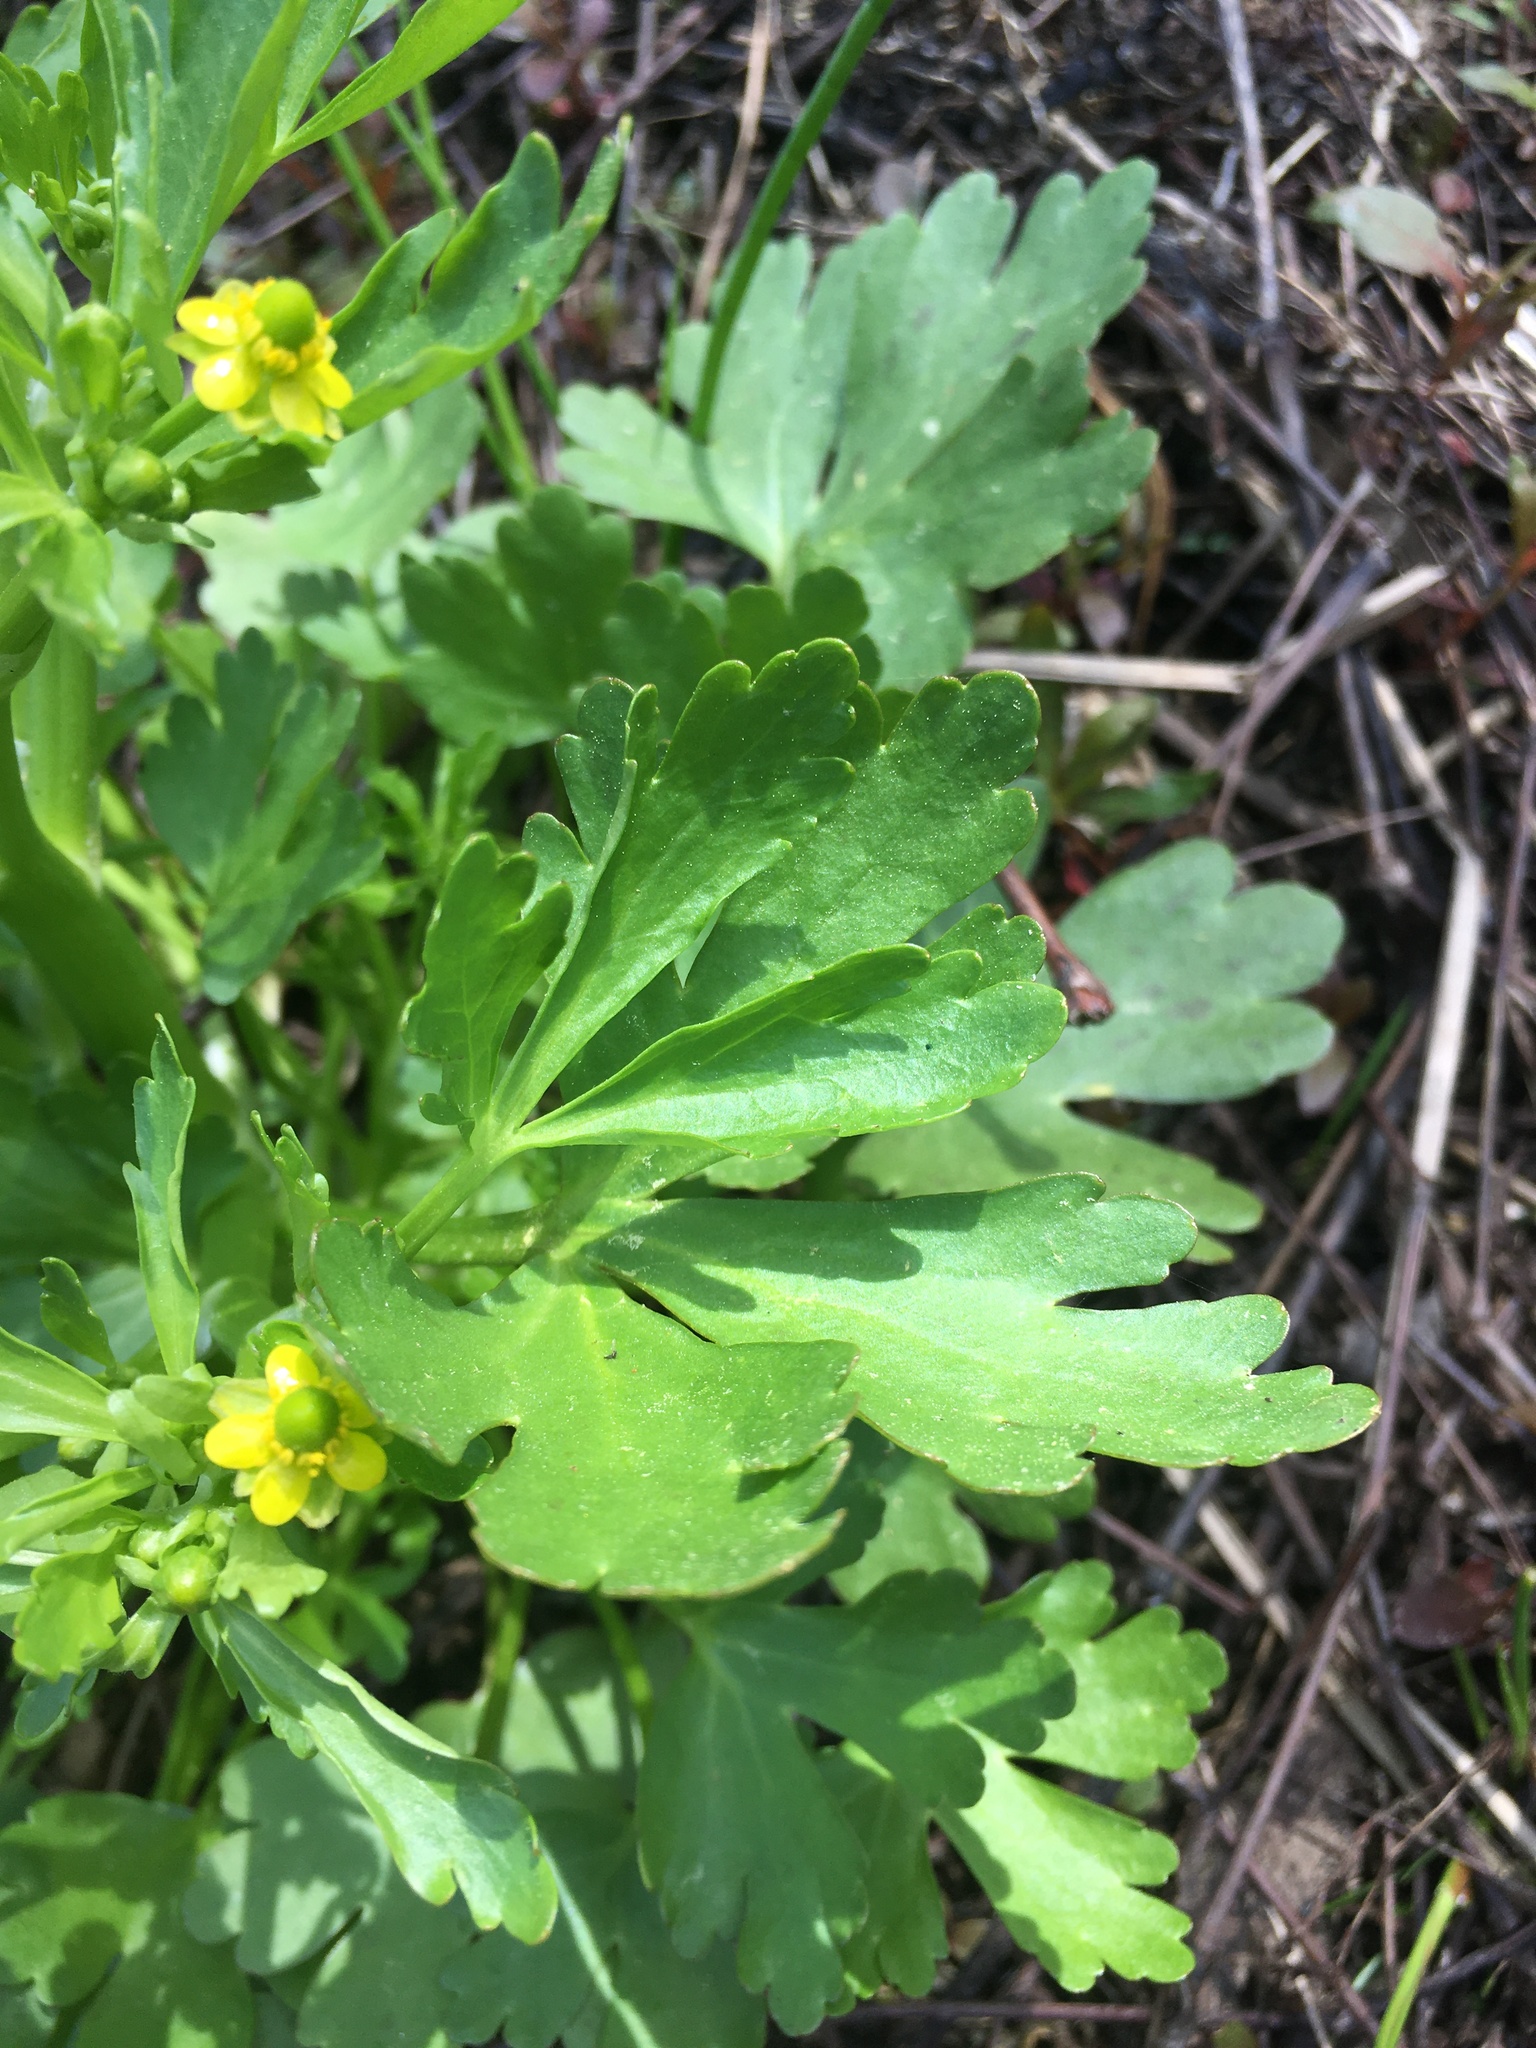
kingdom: Plantae
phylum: Tracheophyta
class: Magnoliopsida
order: Ranunculales
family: Ranunculaceae
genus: Ranunculus
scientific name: Ranunculus sceleratus
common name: Celery-leaved buttercup
